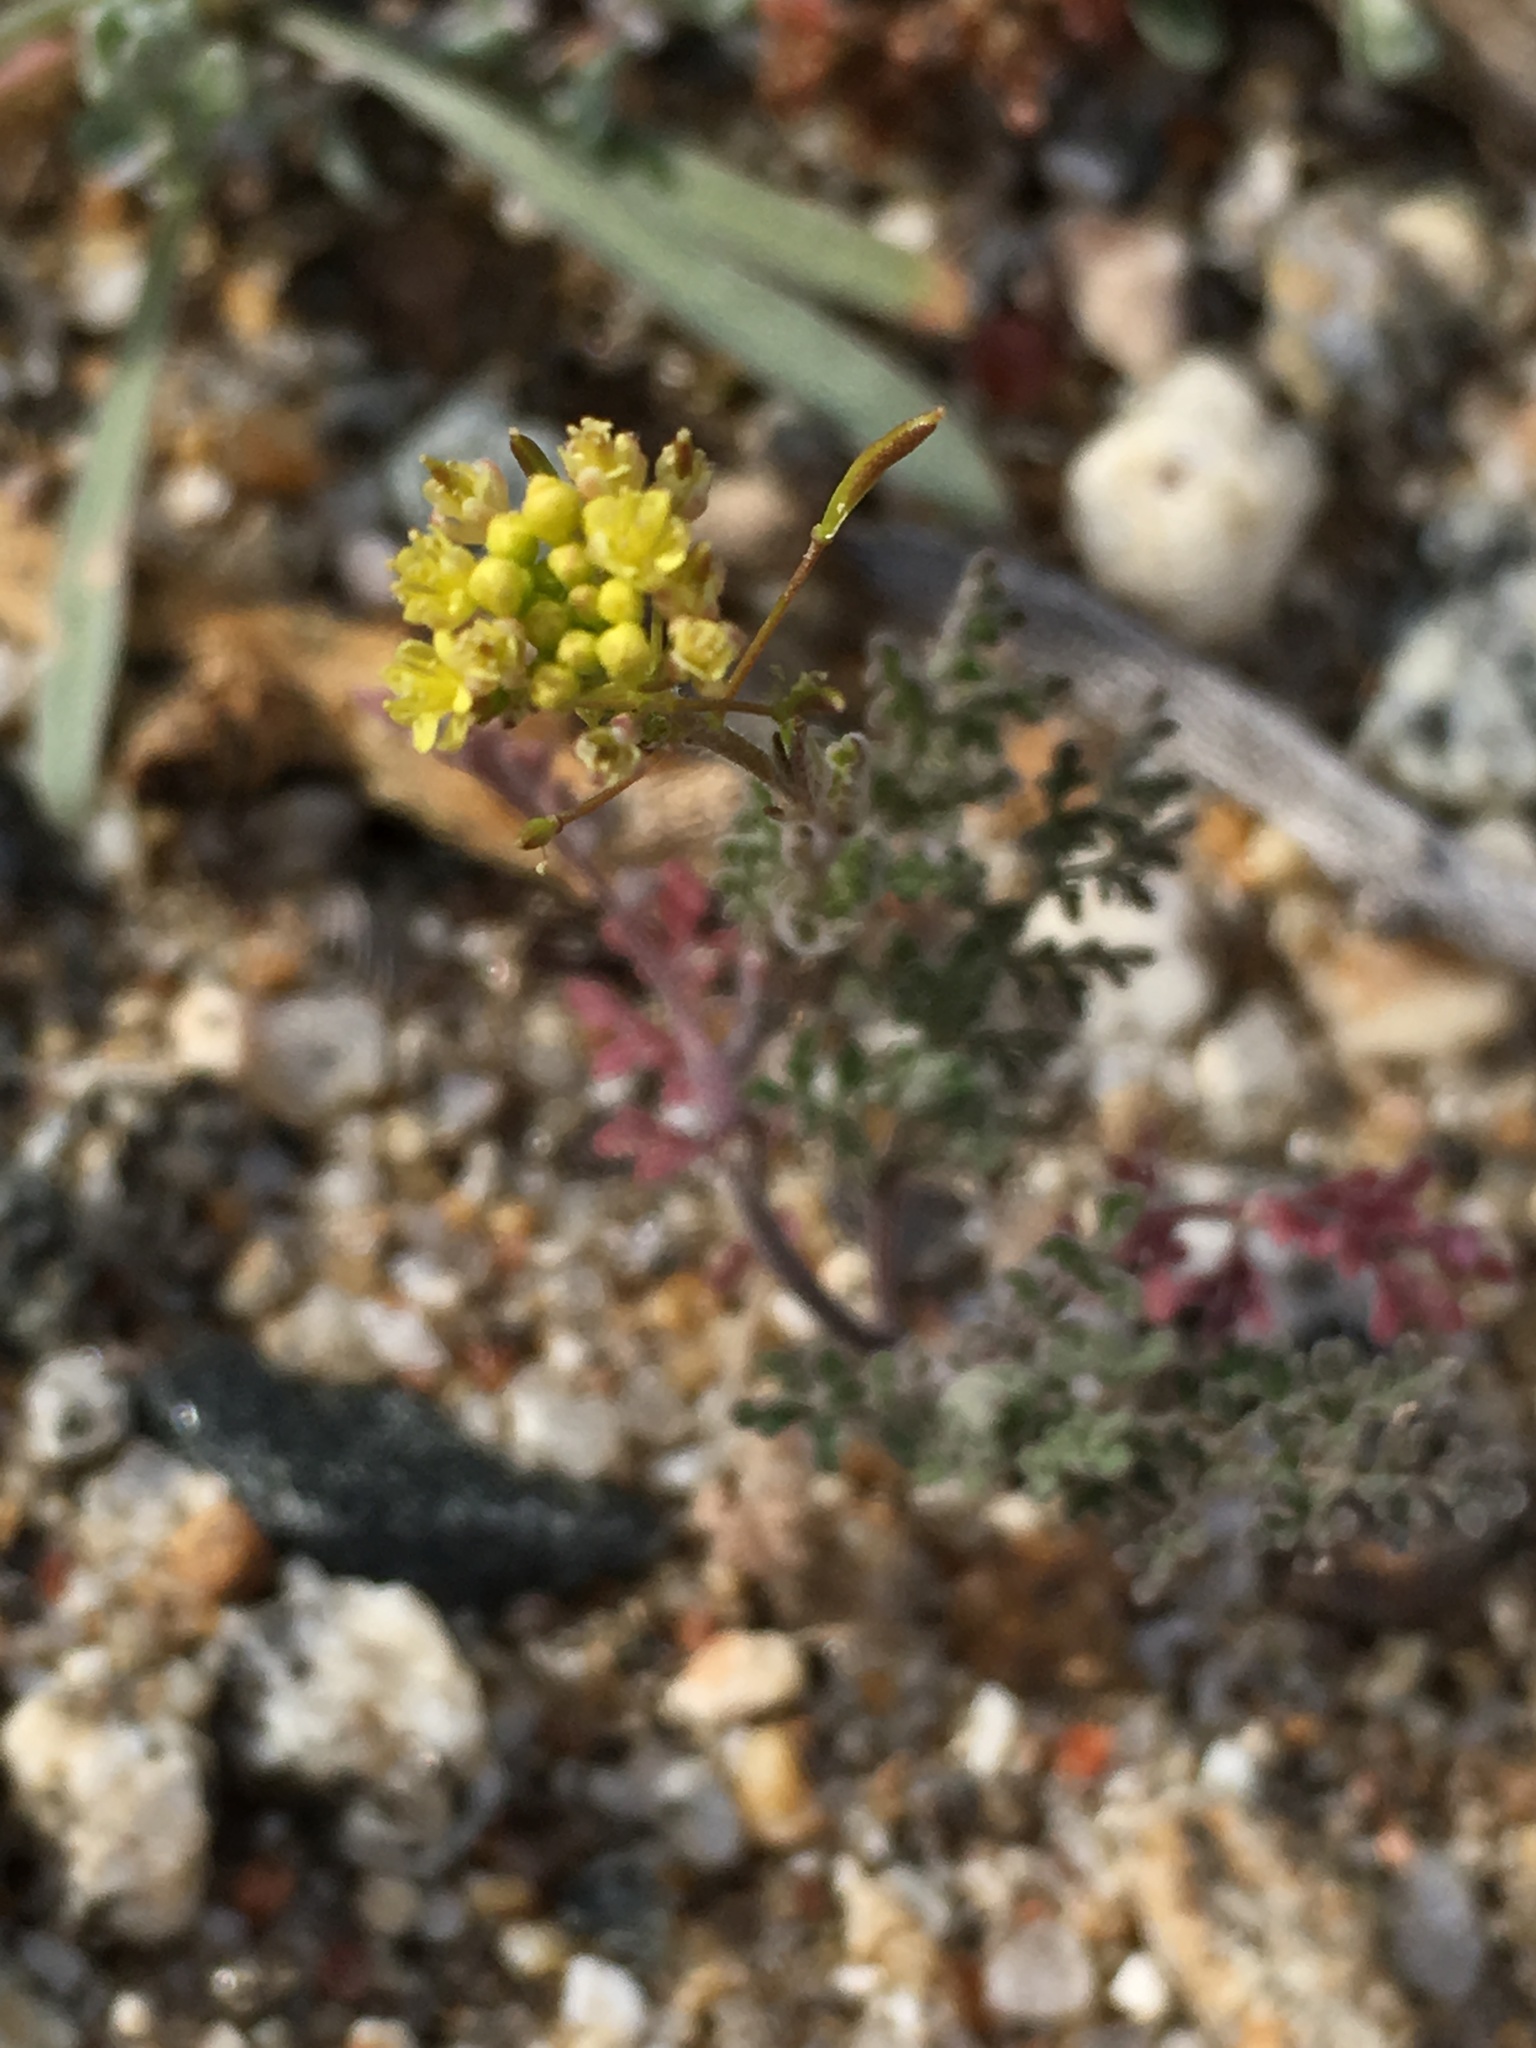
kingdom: Plantae
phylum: Tracheophyta
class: Magnoliopsida
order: Brassicales
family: Brassicaceae
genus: Descurainia
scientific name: Descurainia pinnata
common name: Western tansy mustard
